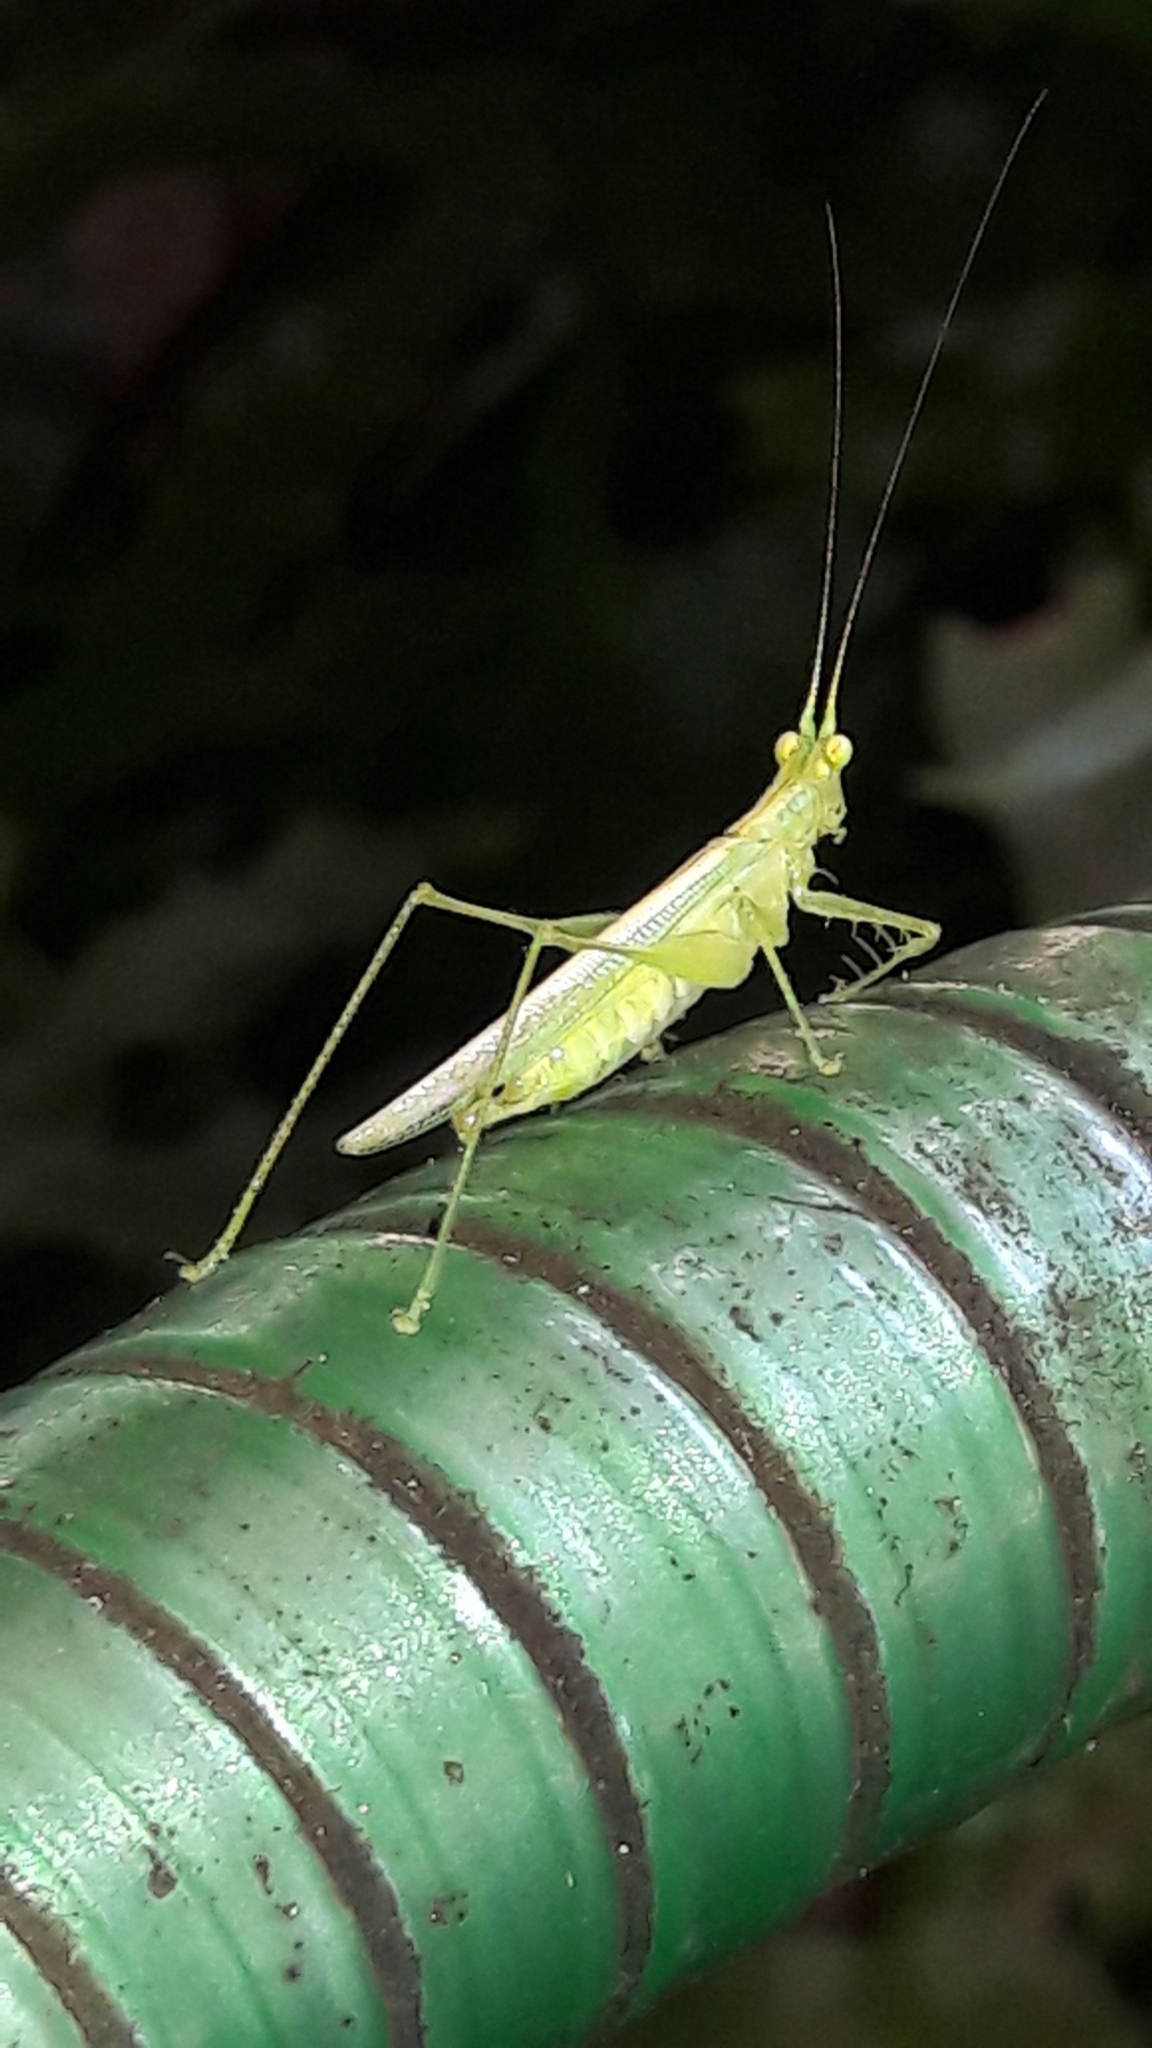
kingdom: Animalia
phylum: Arthropoda
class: Insecta
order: Orthoptera
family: Tettigoniidae
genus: Phlugis
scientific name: Phlugis ocraceovittata
